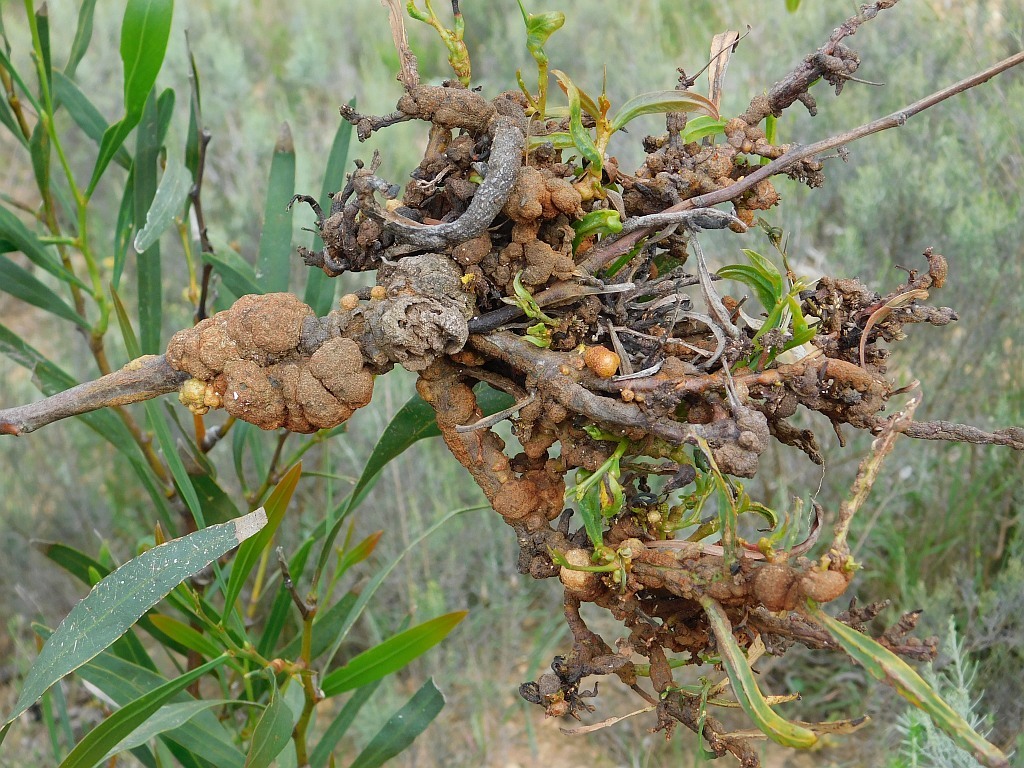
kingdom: Fungi
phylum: Basidiomycota
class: Pucciniomycetes
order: Pucciniales
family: Uromycladiaceae
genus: Uromycladium
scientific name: Uromycladium morrisii
